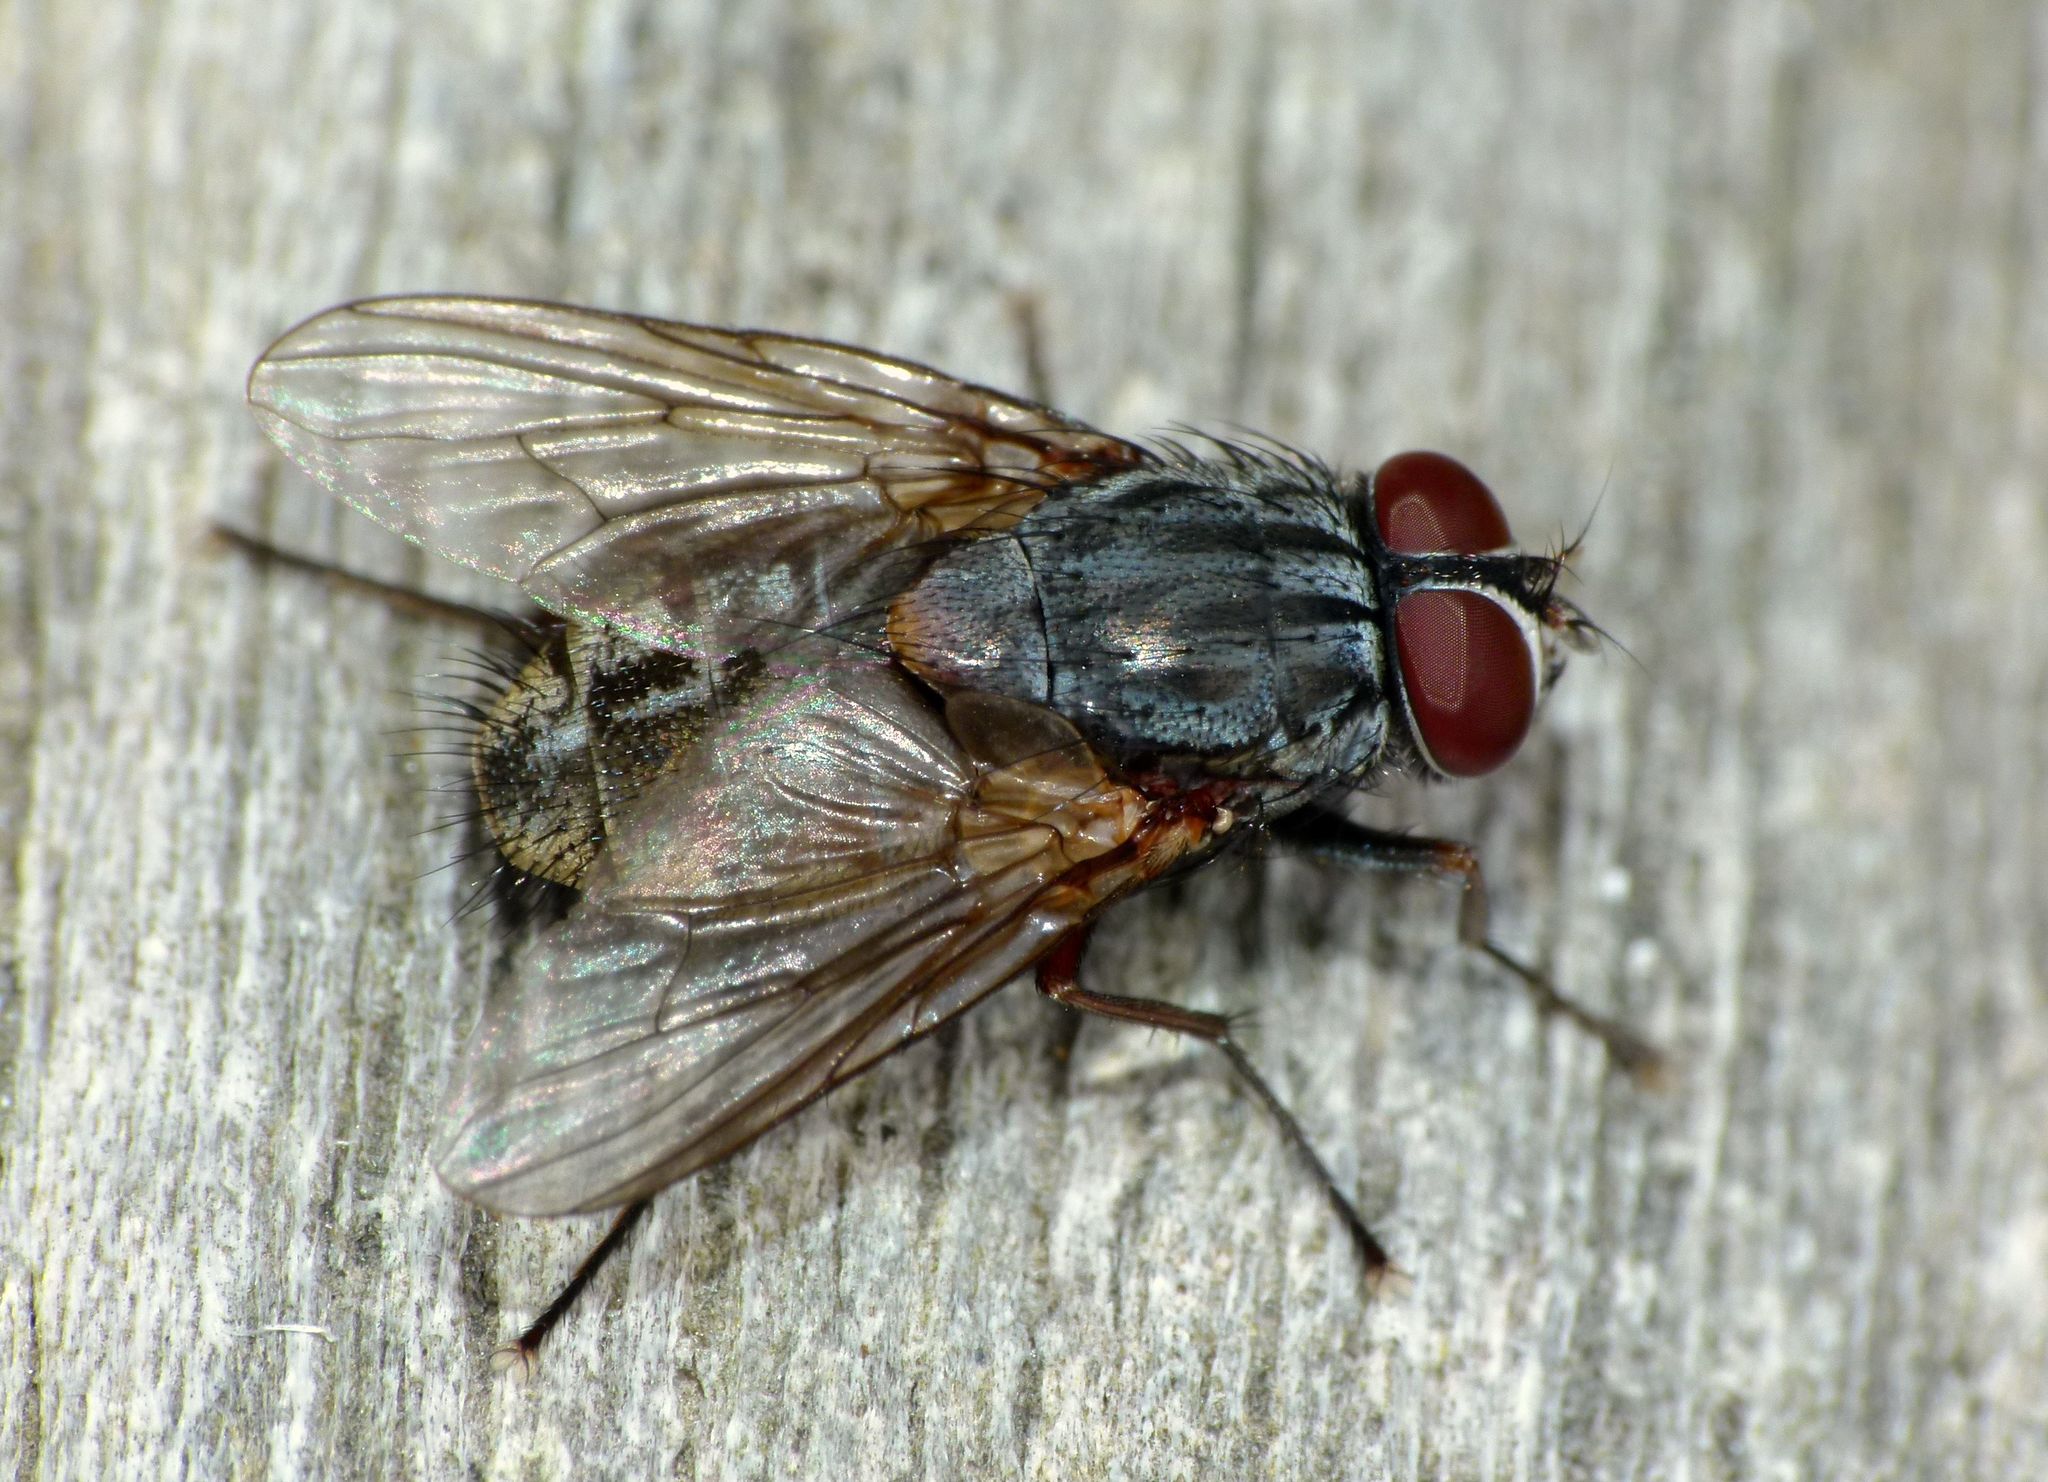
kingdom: Animalia
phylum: Arthropoda
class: Insecta
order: Diptera
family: Muscidae
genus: Muscina
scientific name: Muscina stabulans
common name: False stable fly
